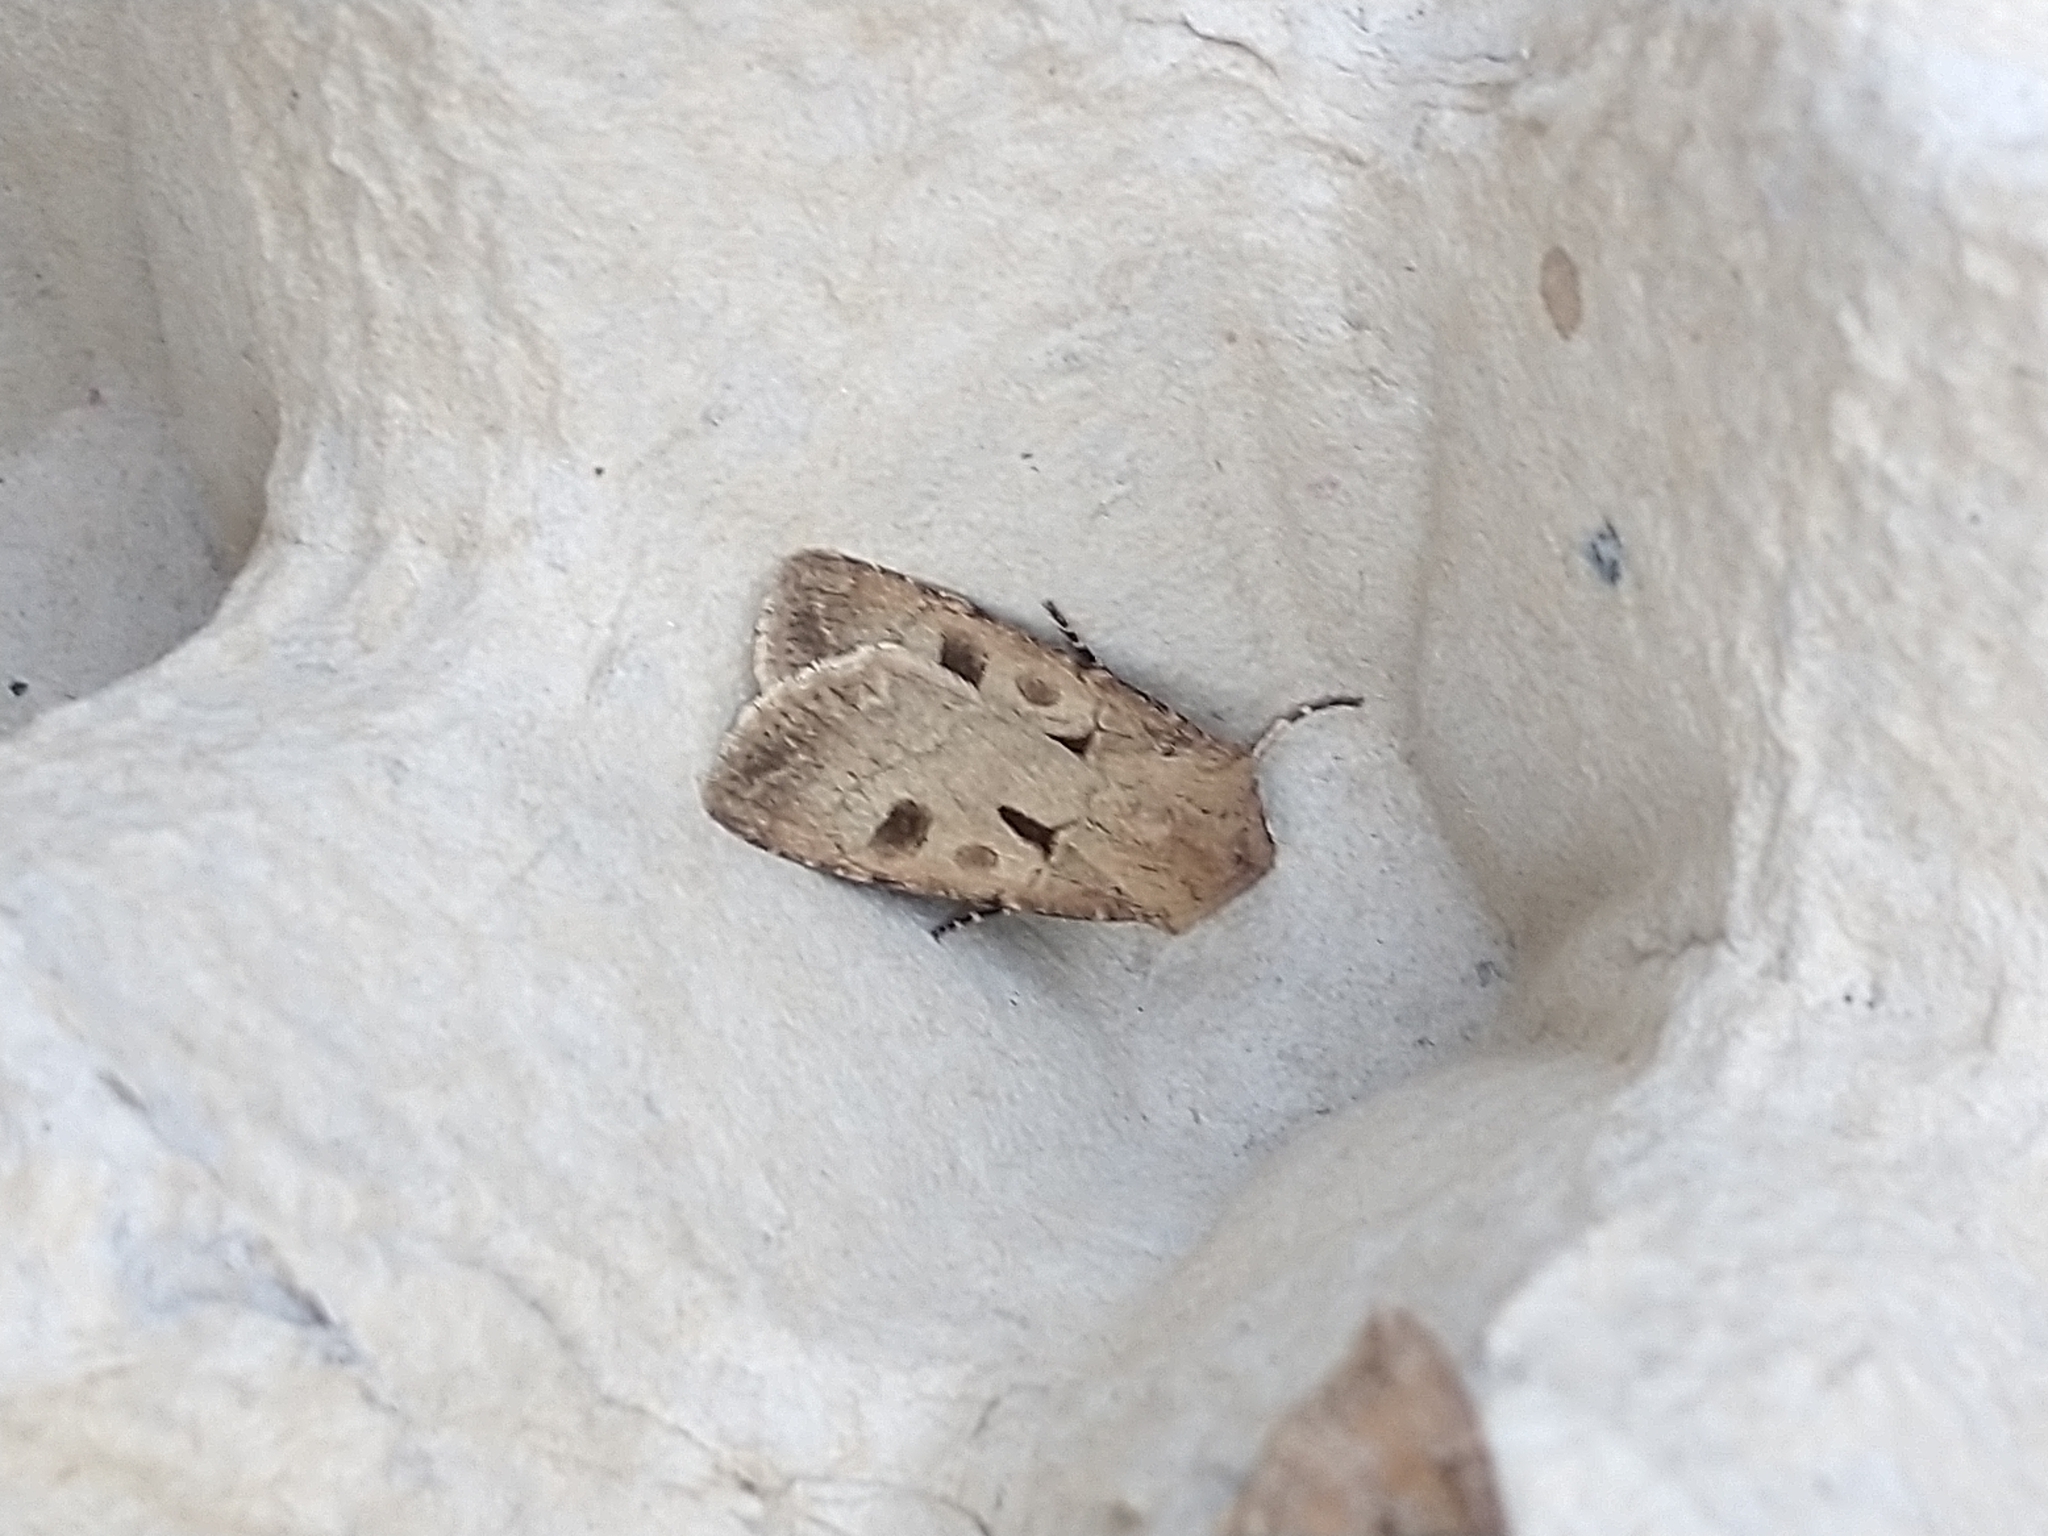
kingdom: Animalia
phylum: Arthropoda
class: Insecta
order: Lepidoptera
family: Noctuidae
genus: Agrotis
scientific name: Agrotis exclamationis
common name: Heart and dart
